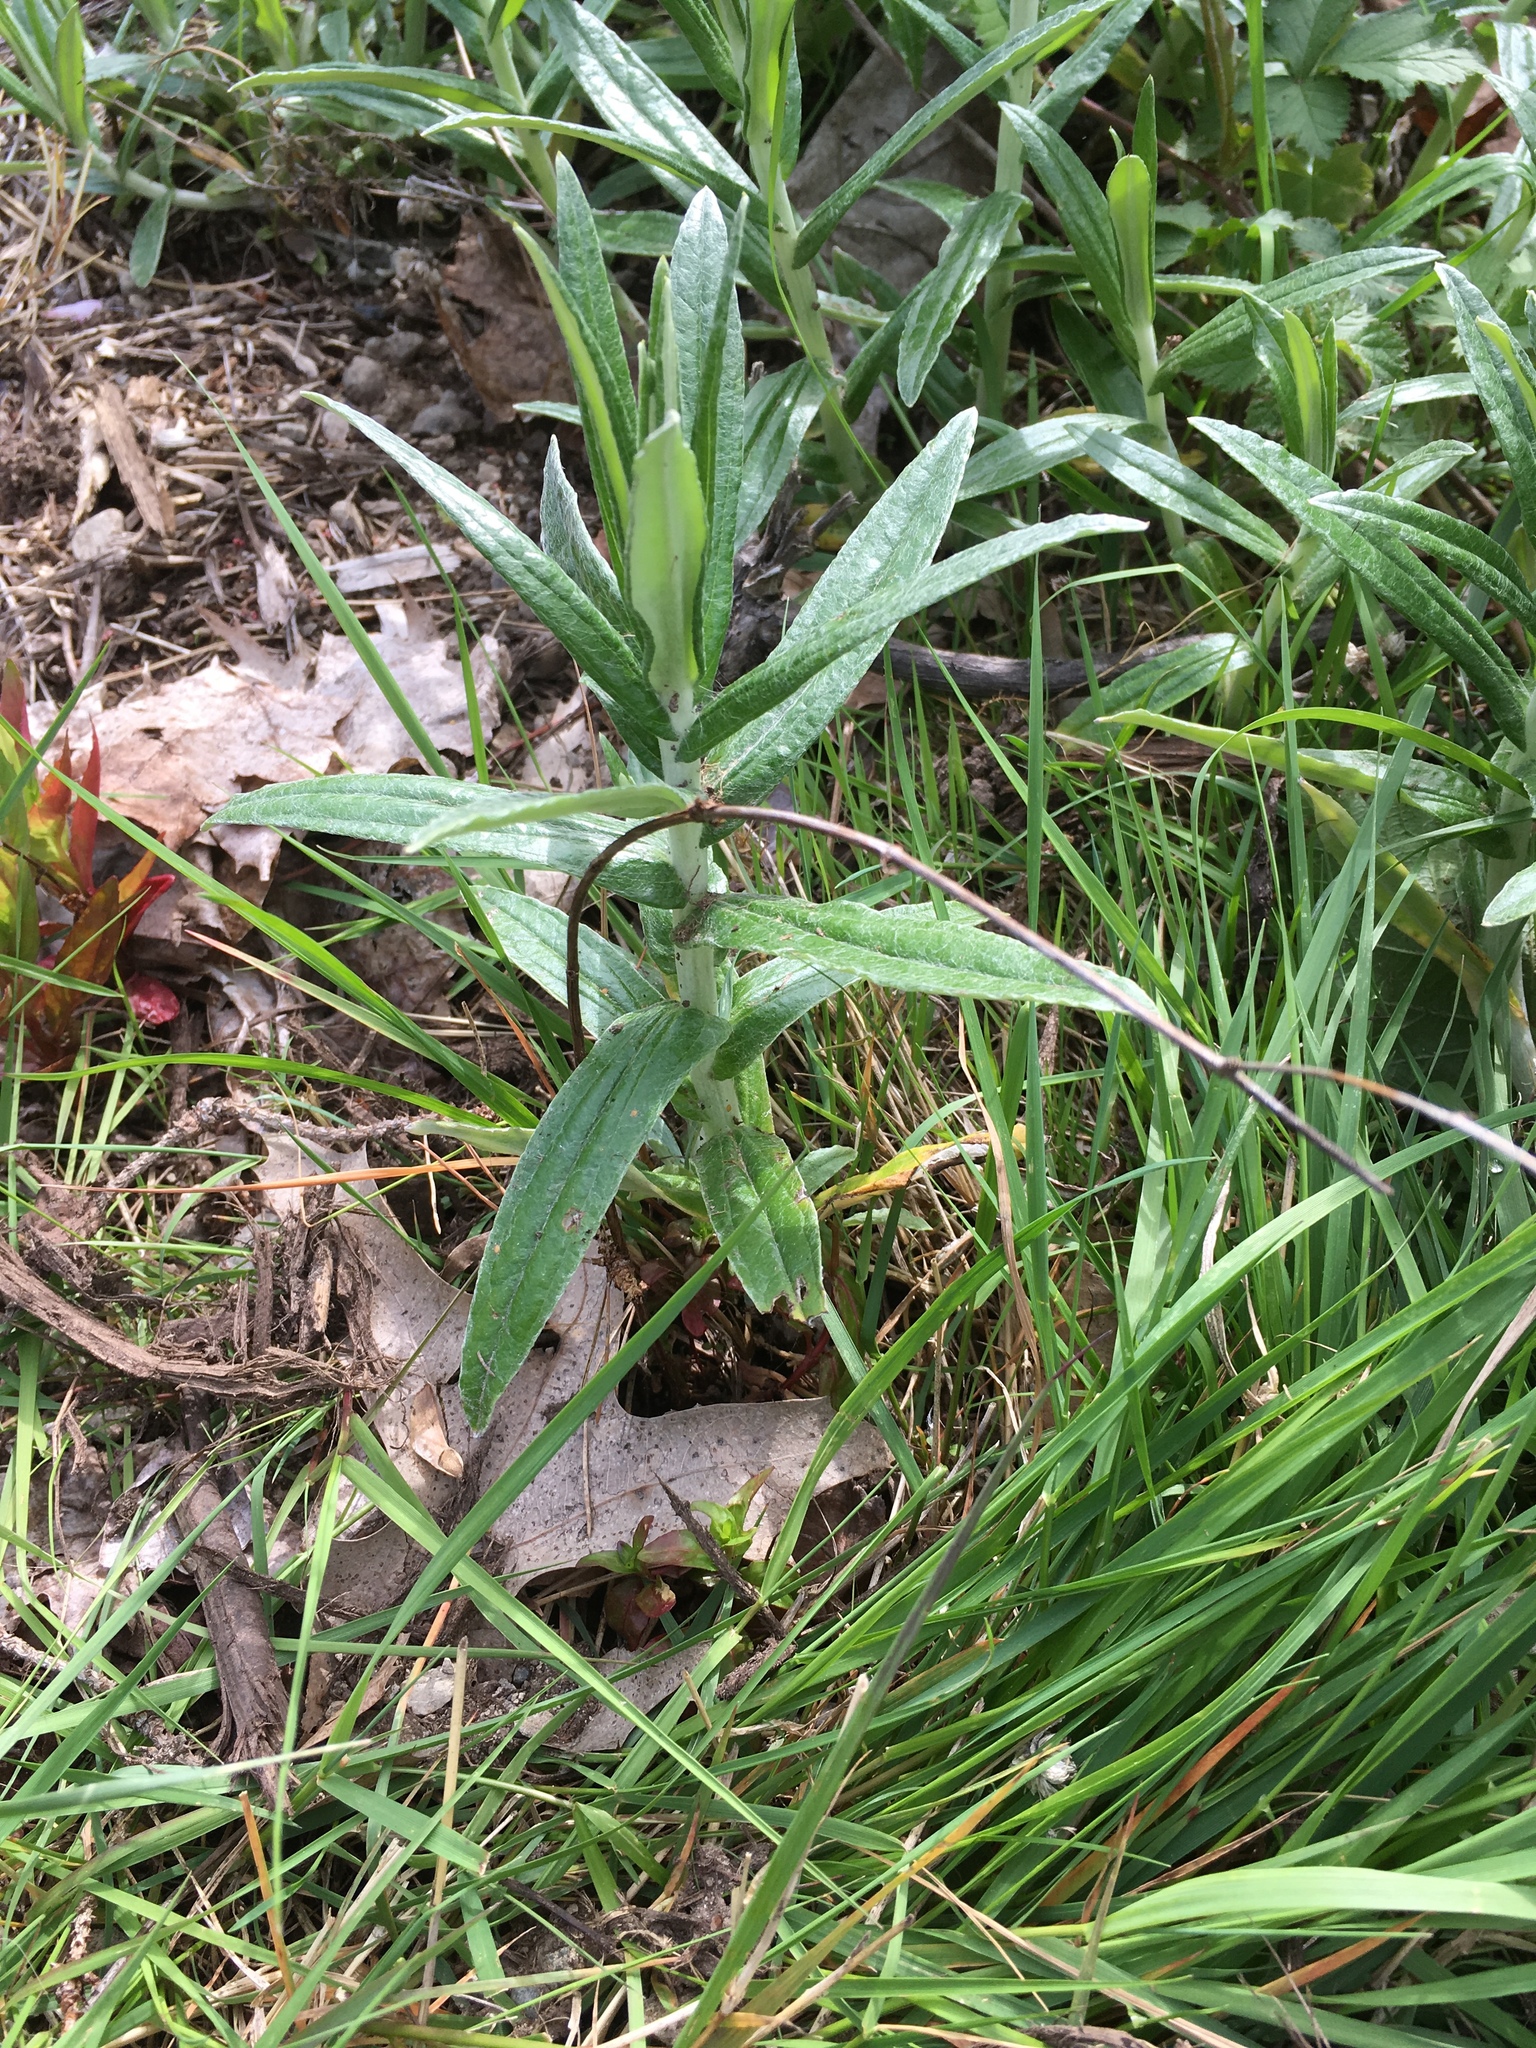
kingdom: Plantae
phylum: Tracheophyta
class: Magnoliopsida
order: Asterales
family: Asteraceae
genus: Anaphalis
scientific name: Anaphalis margaritacea
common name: Pearly everlasting
